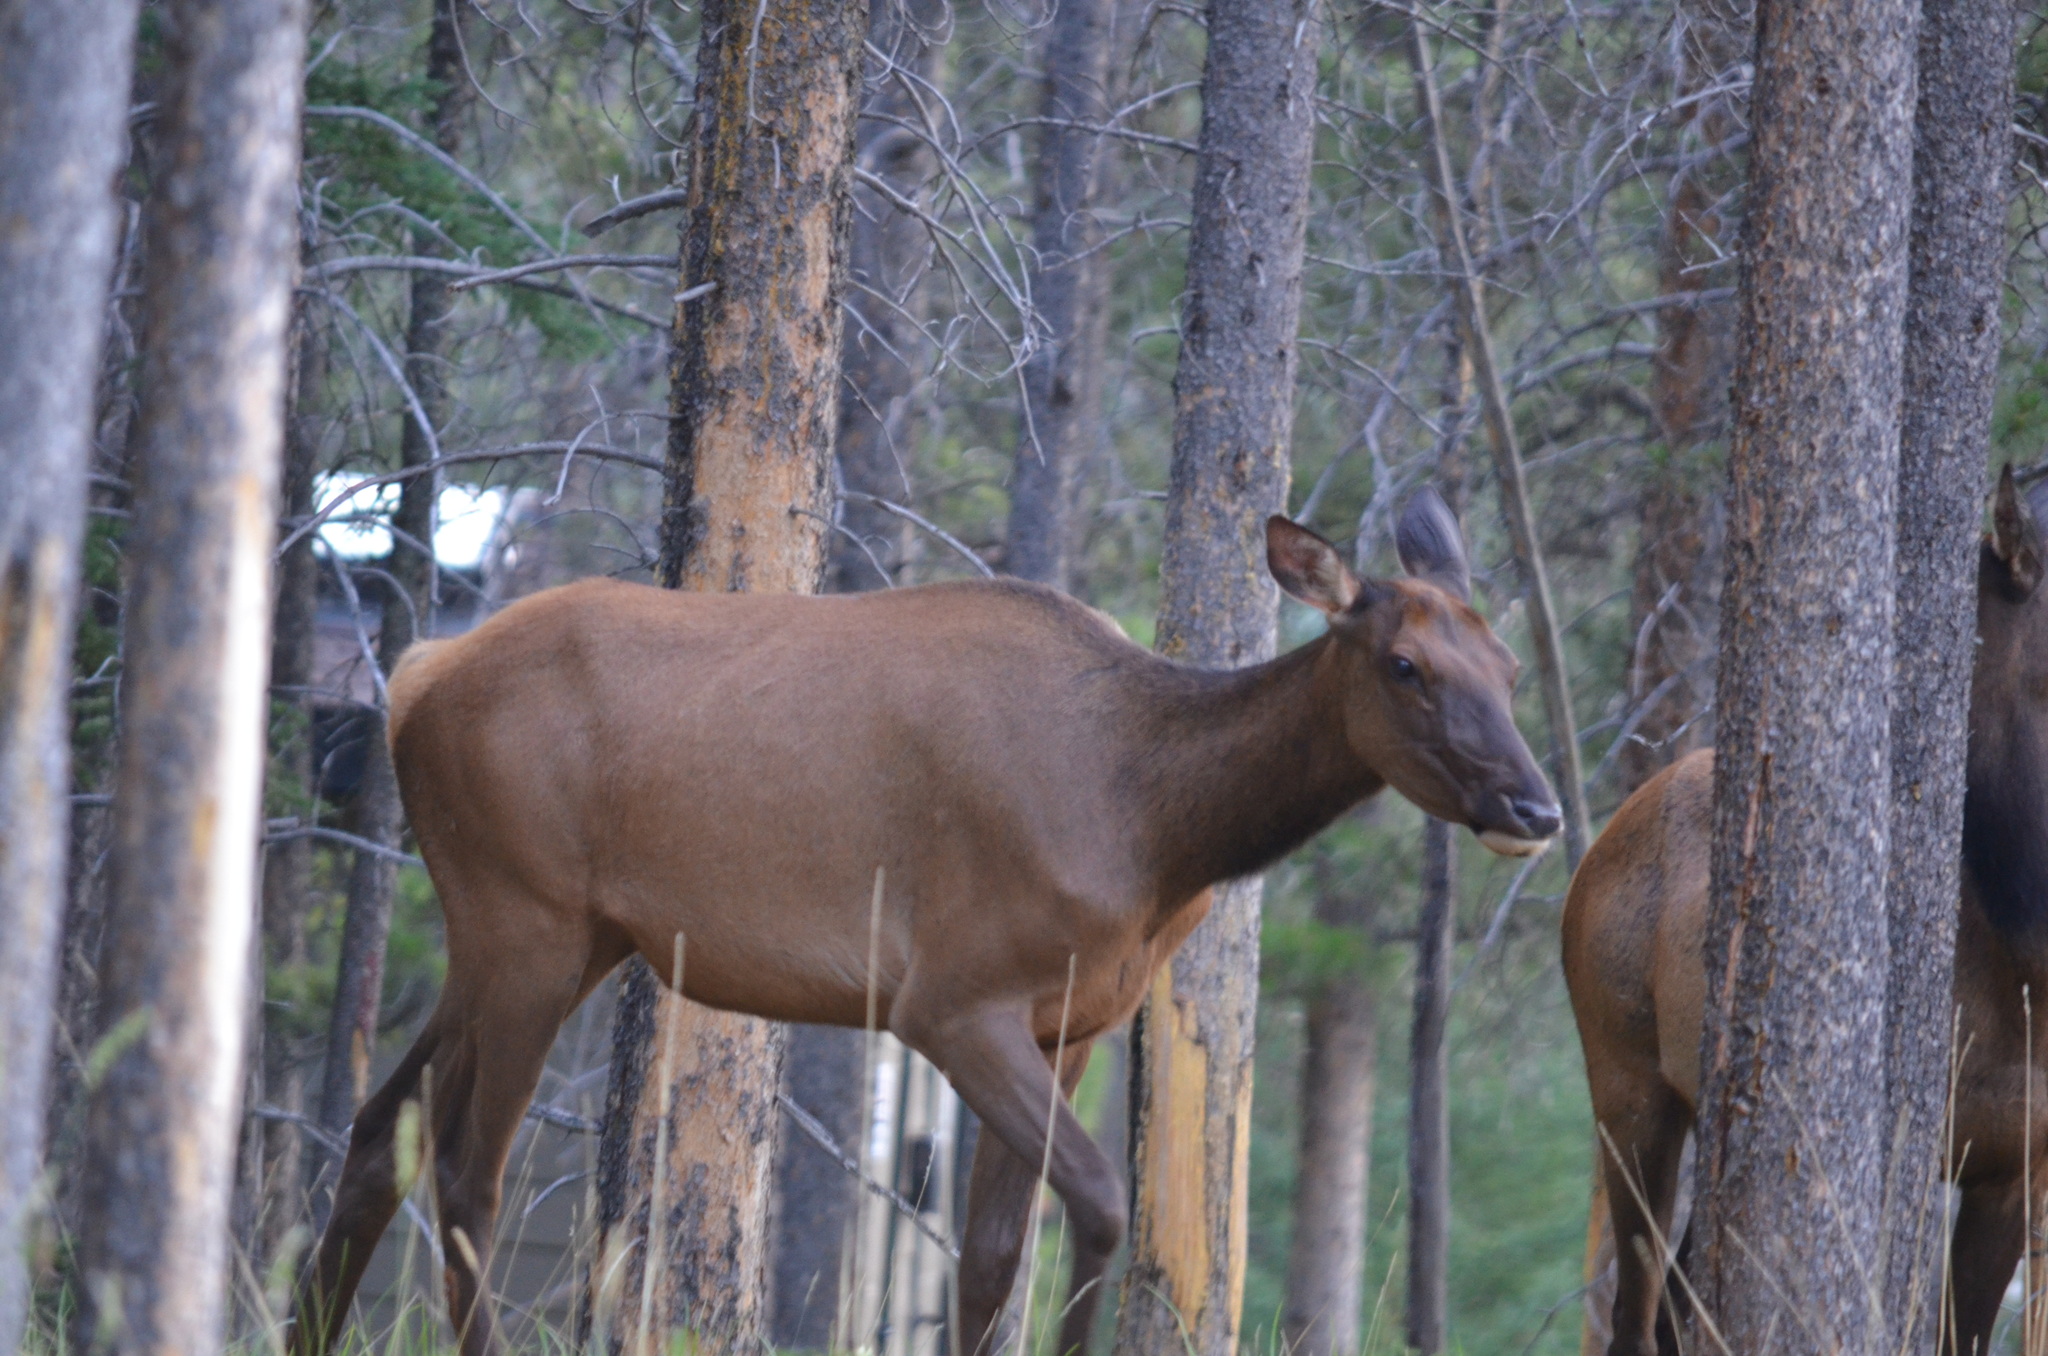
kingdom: Animalia
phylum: Chordata
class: Mammalia
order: Artiodactyla
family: Cervidae
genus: Cervus
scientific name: Cervus elaphus
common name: Red deer
